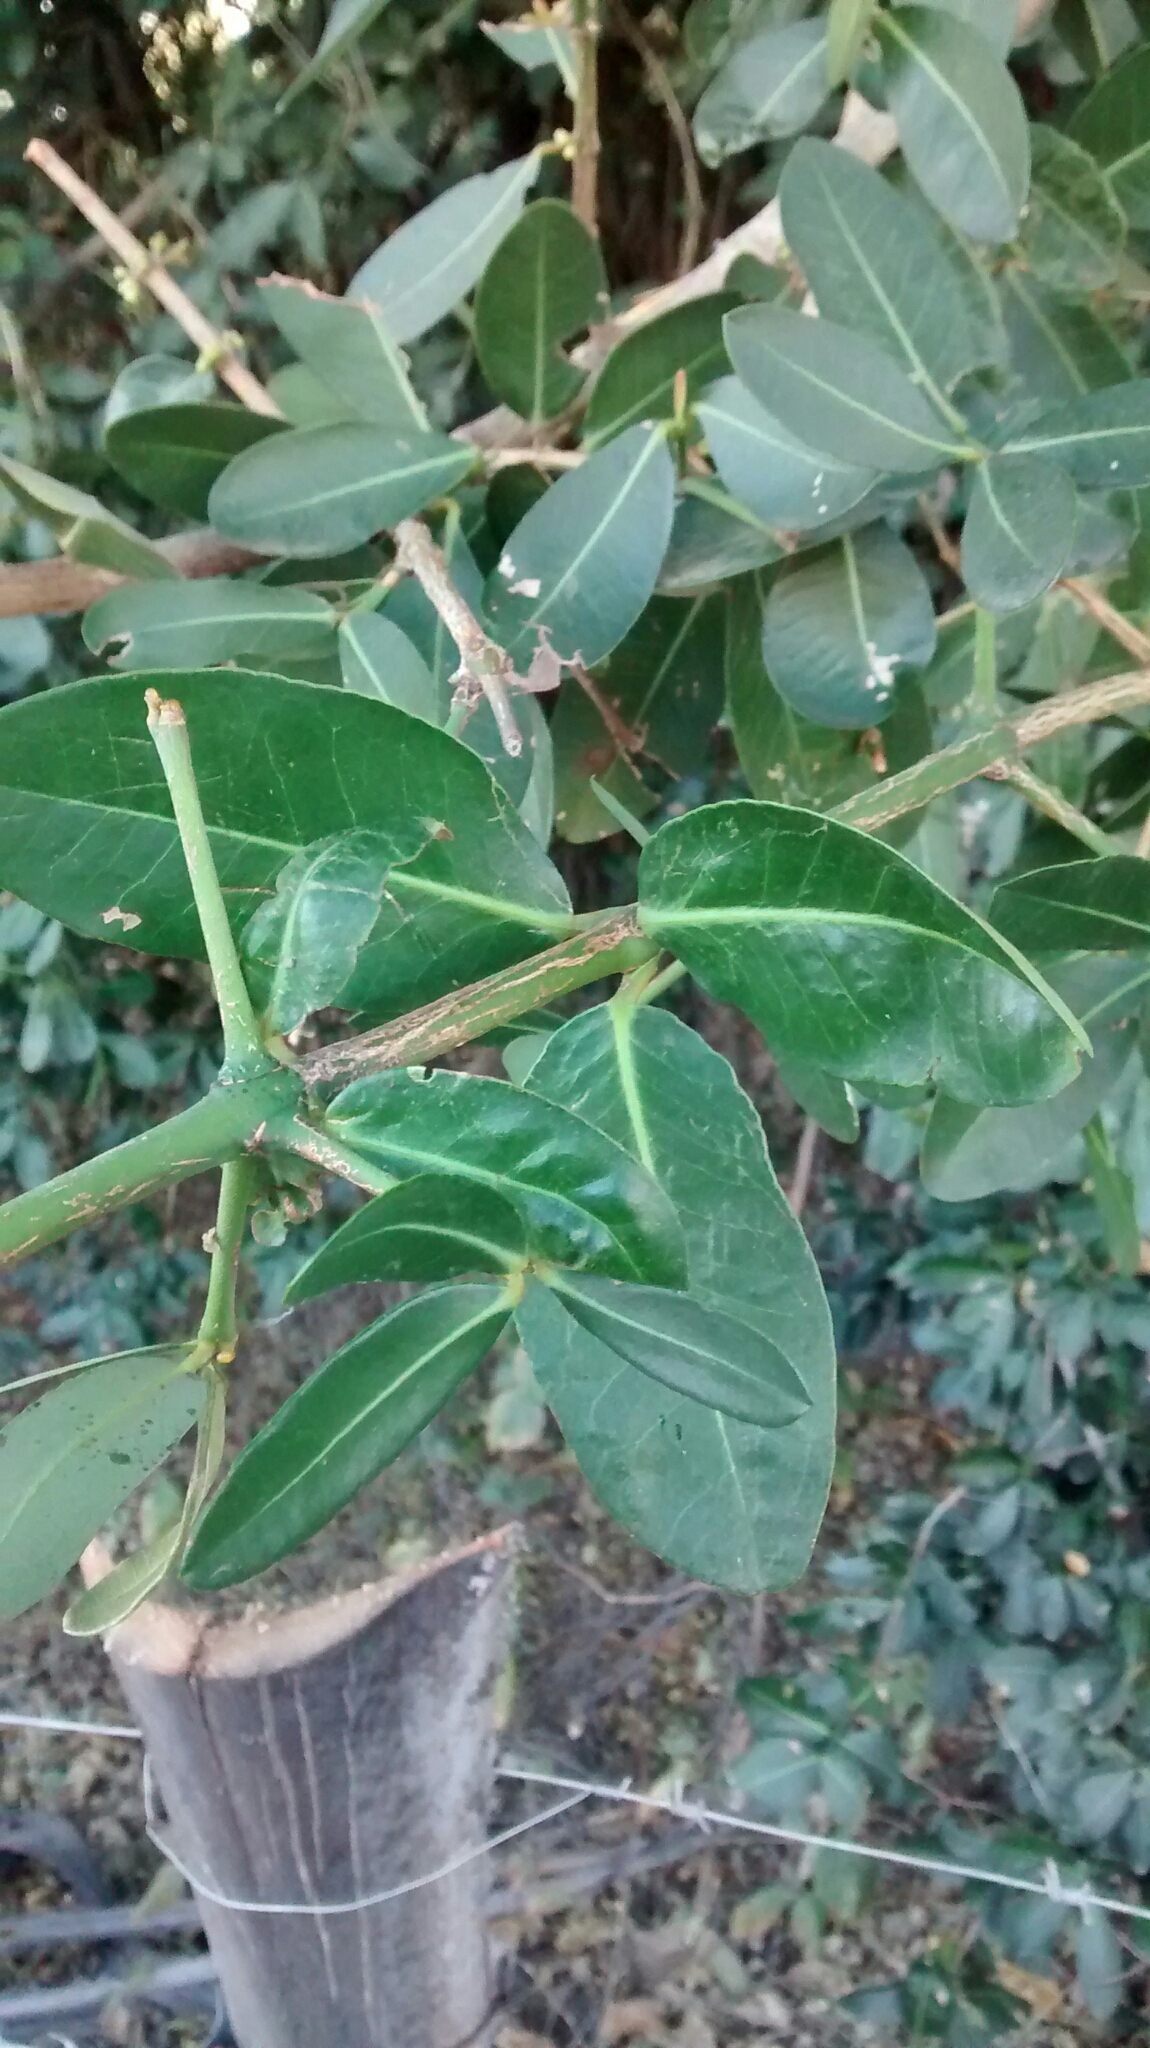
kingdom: Plantae
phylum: Tracheophyta
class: Magnoliopsida
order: Malpighiales
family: Clusiaceae
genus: Garcinia
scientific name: Garcinia livingstonei
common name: African mangosteen
